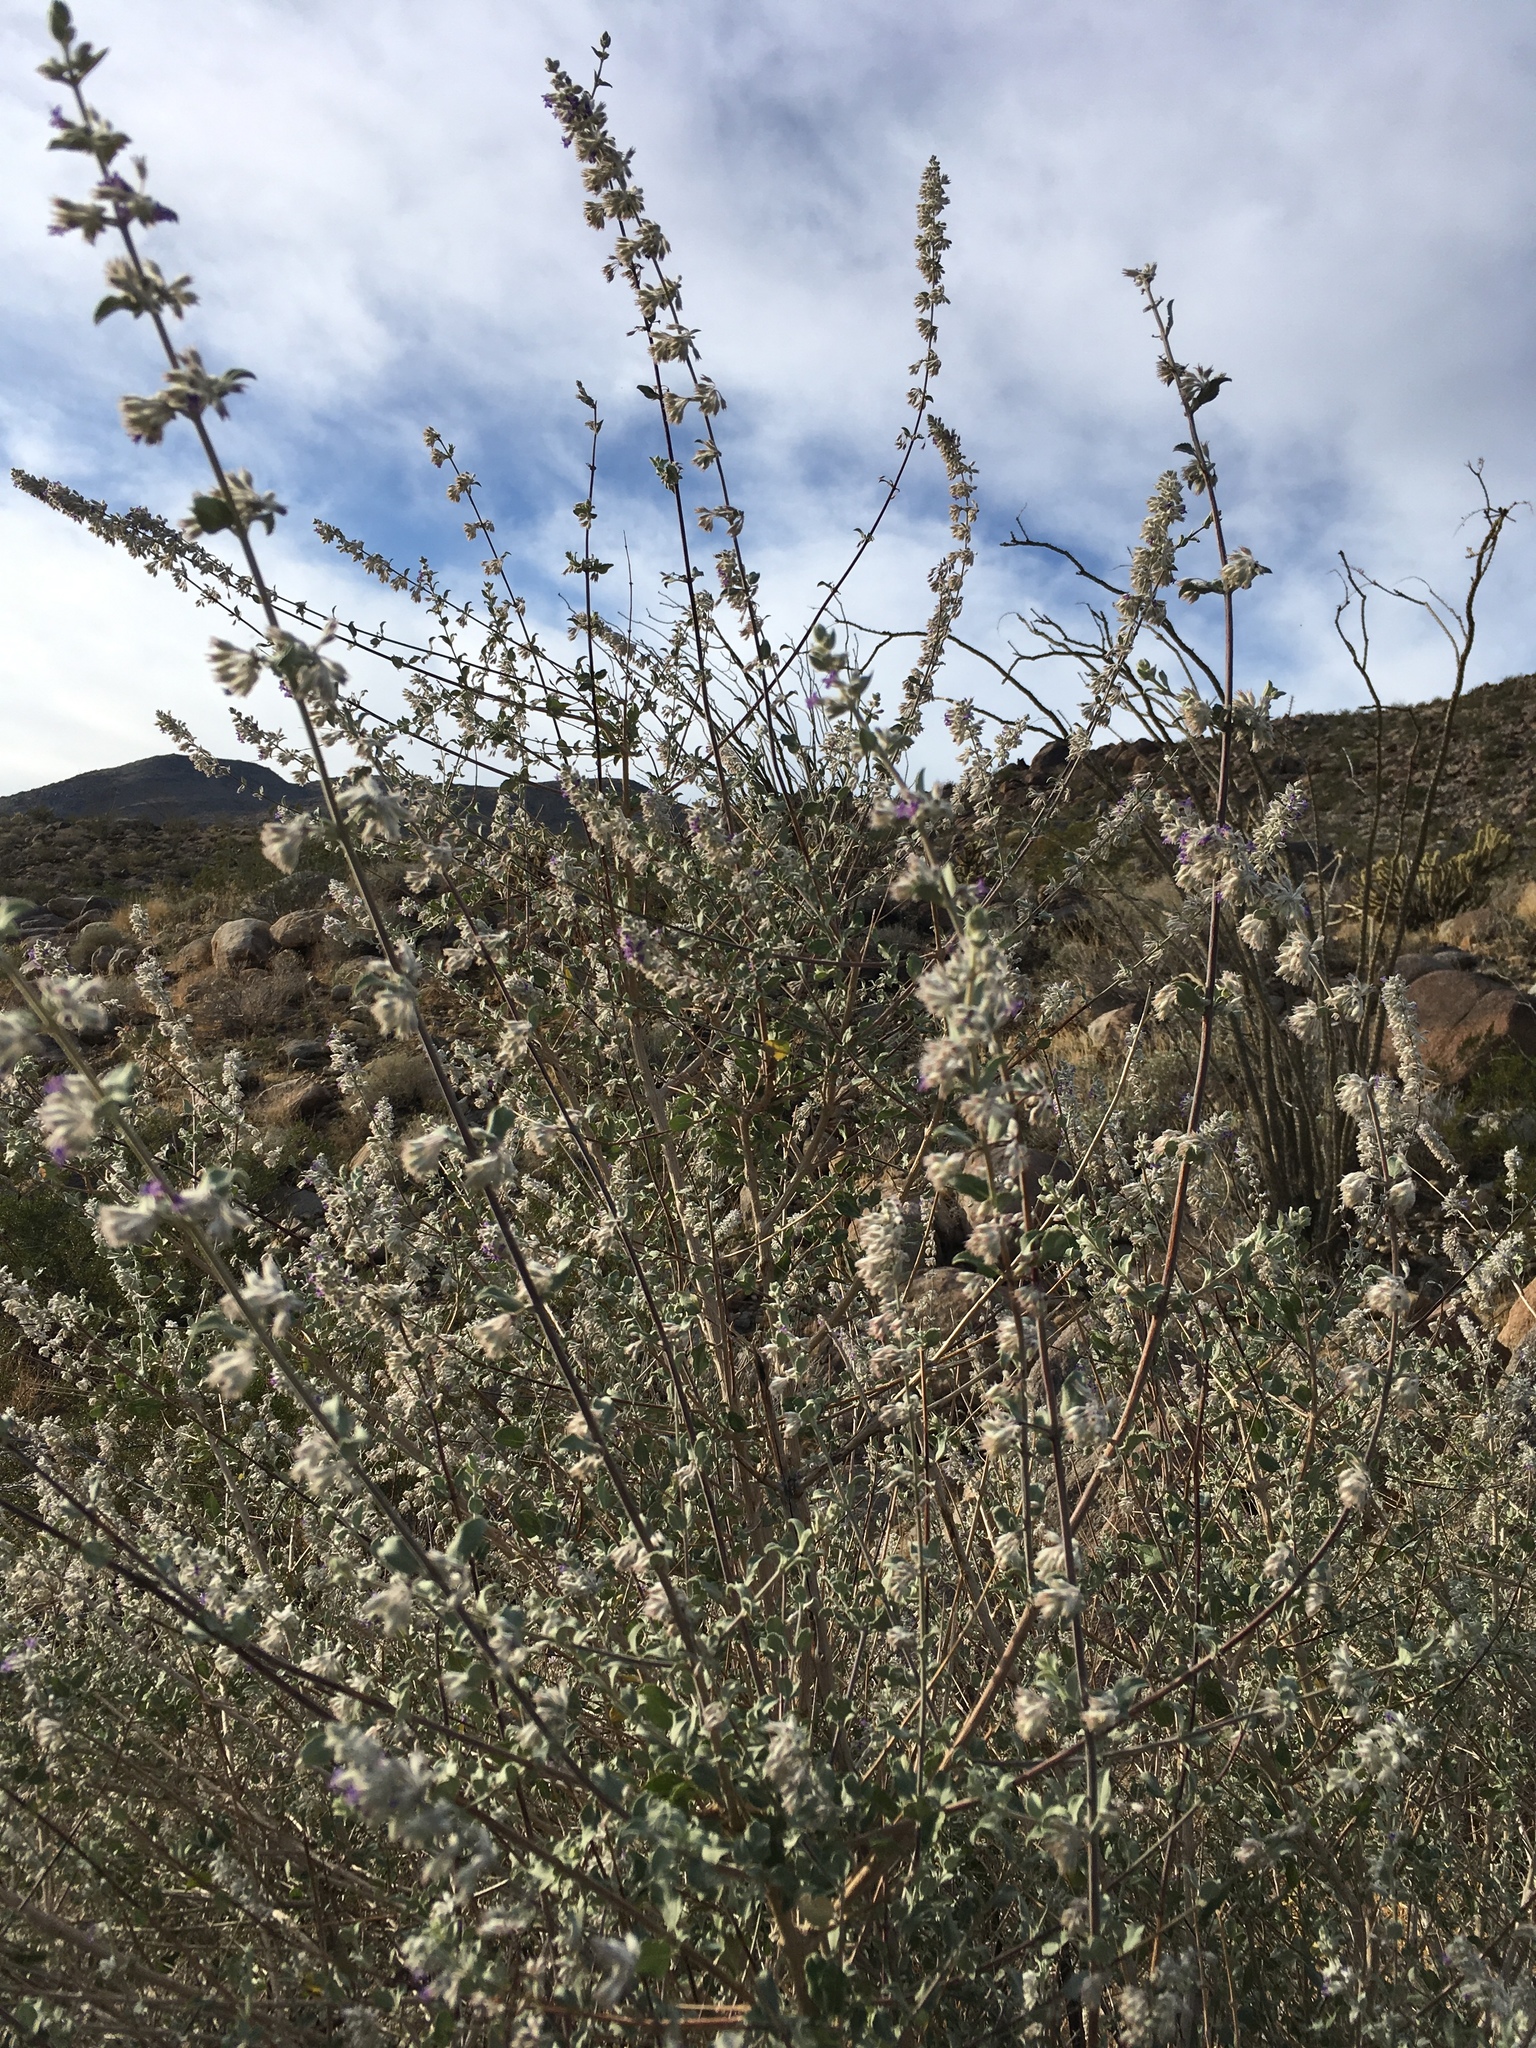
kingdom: Plantae
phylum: Tracheophyta
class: Magnoliopsida
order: Lamiales
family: Lamiaceae
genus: Condea
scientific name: Condea emoryi
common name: Chia
